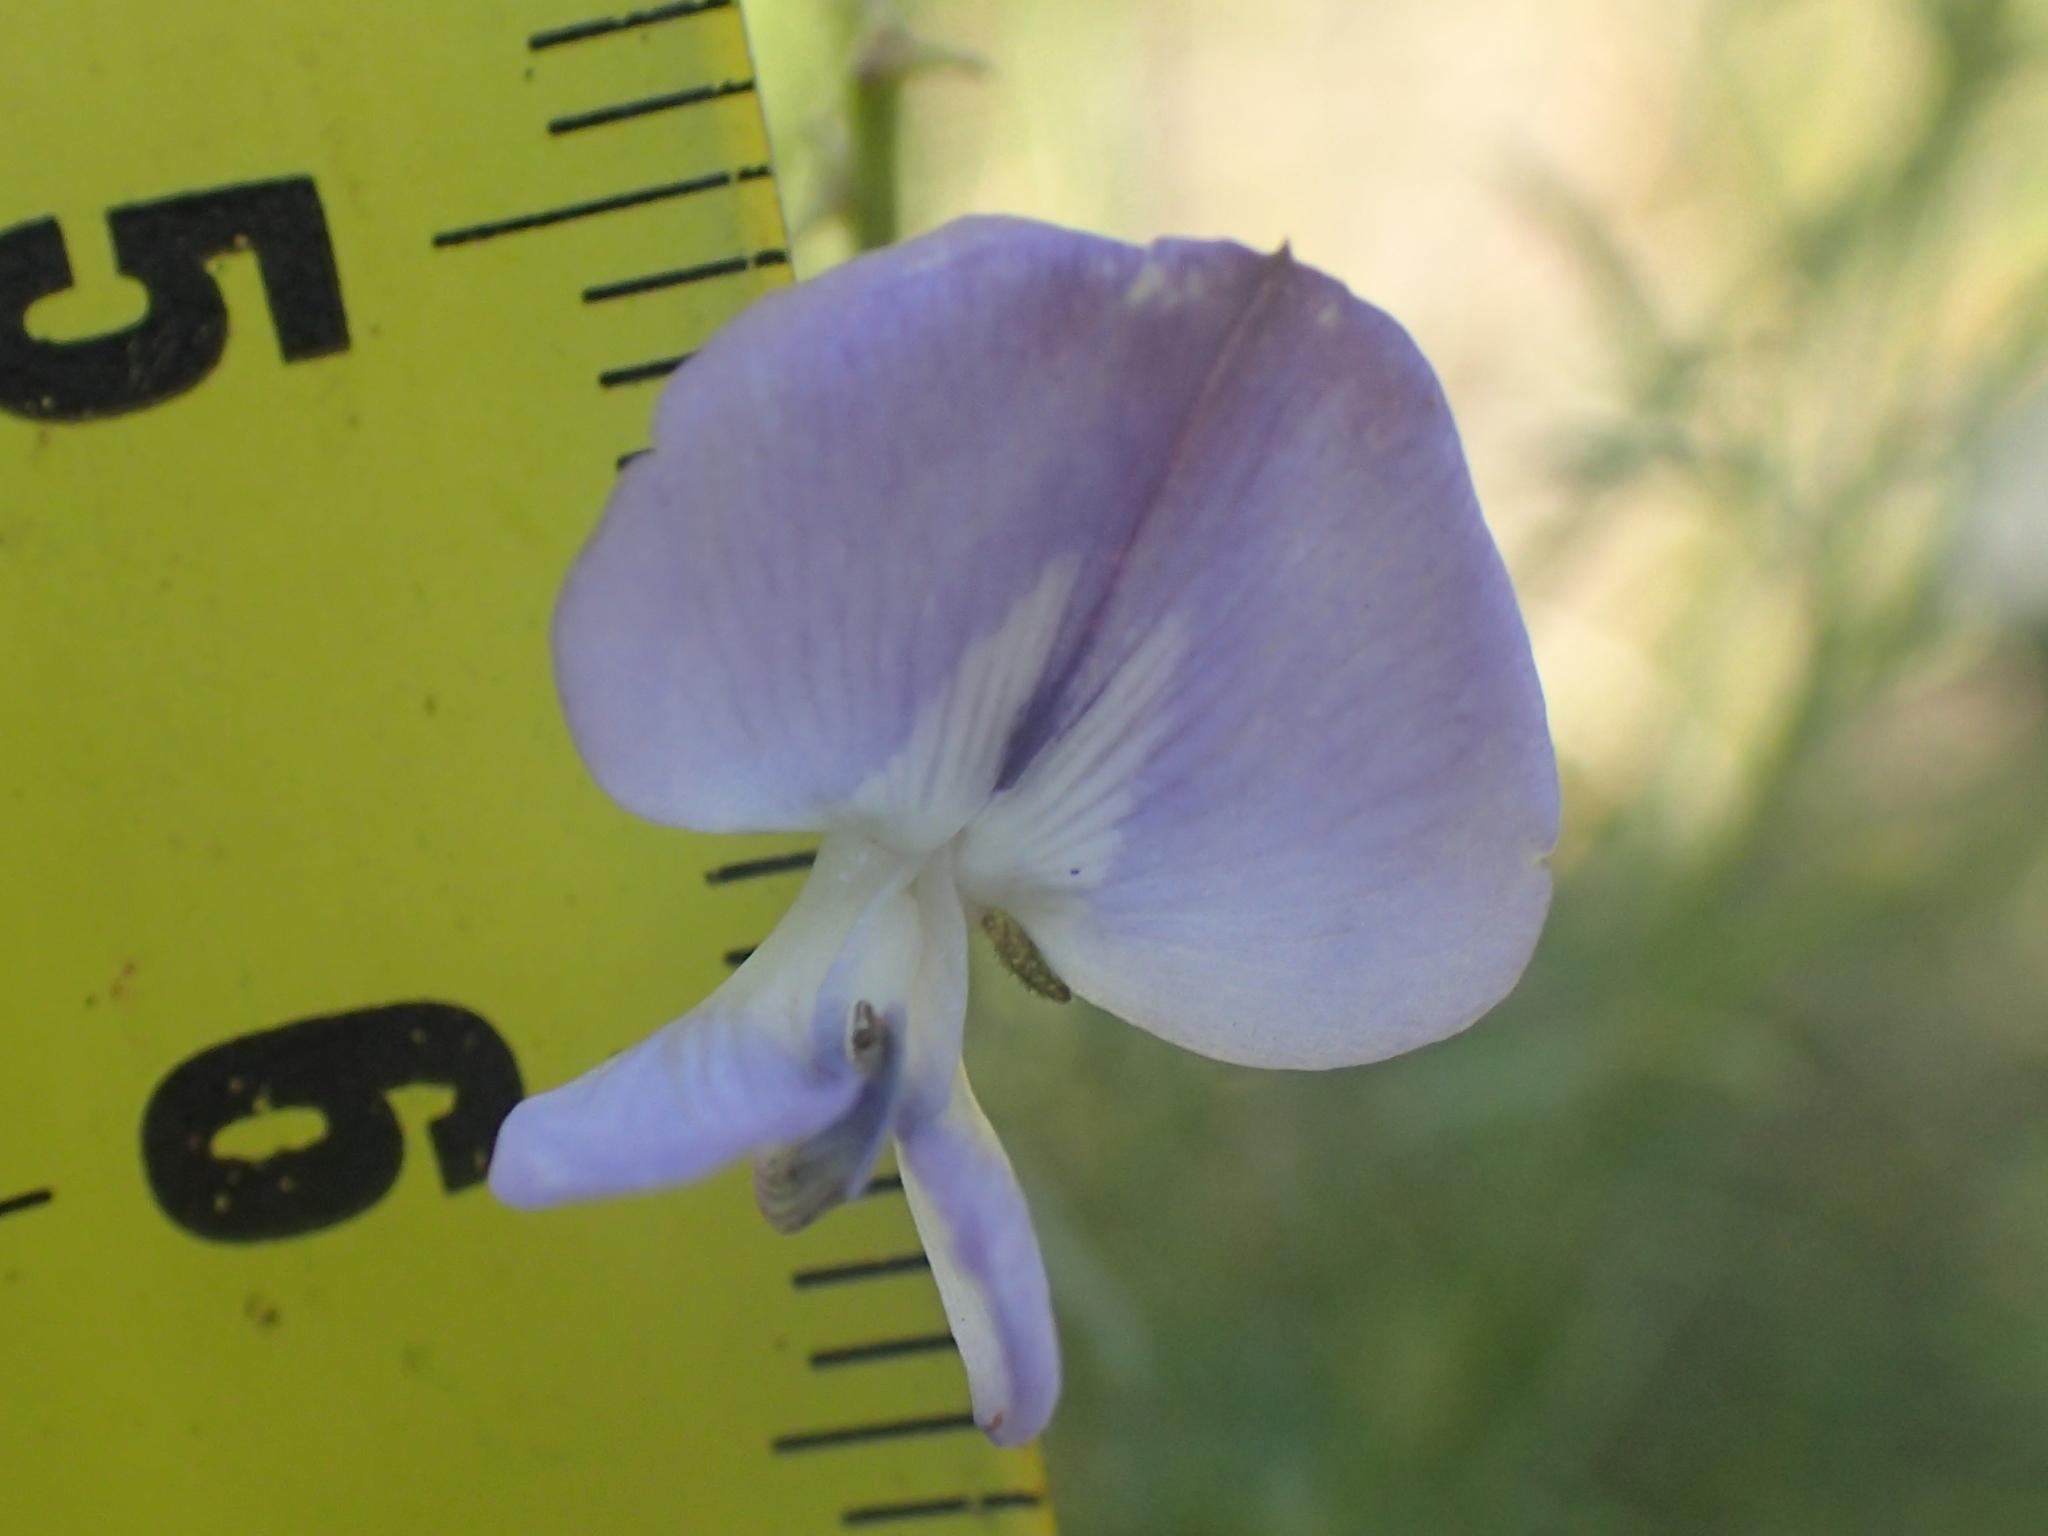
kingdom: Plantae
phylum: Tracheophyta
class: Magnoliopsida
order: Fabales
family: Fabaceae
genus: Psoralea
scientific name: Psoralea rhizotoma
